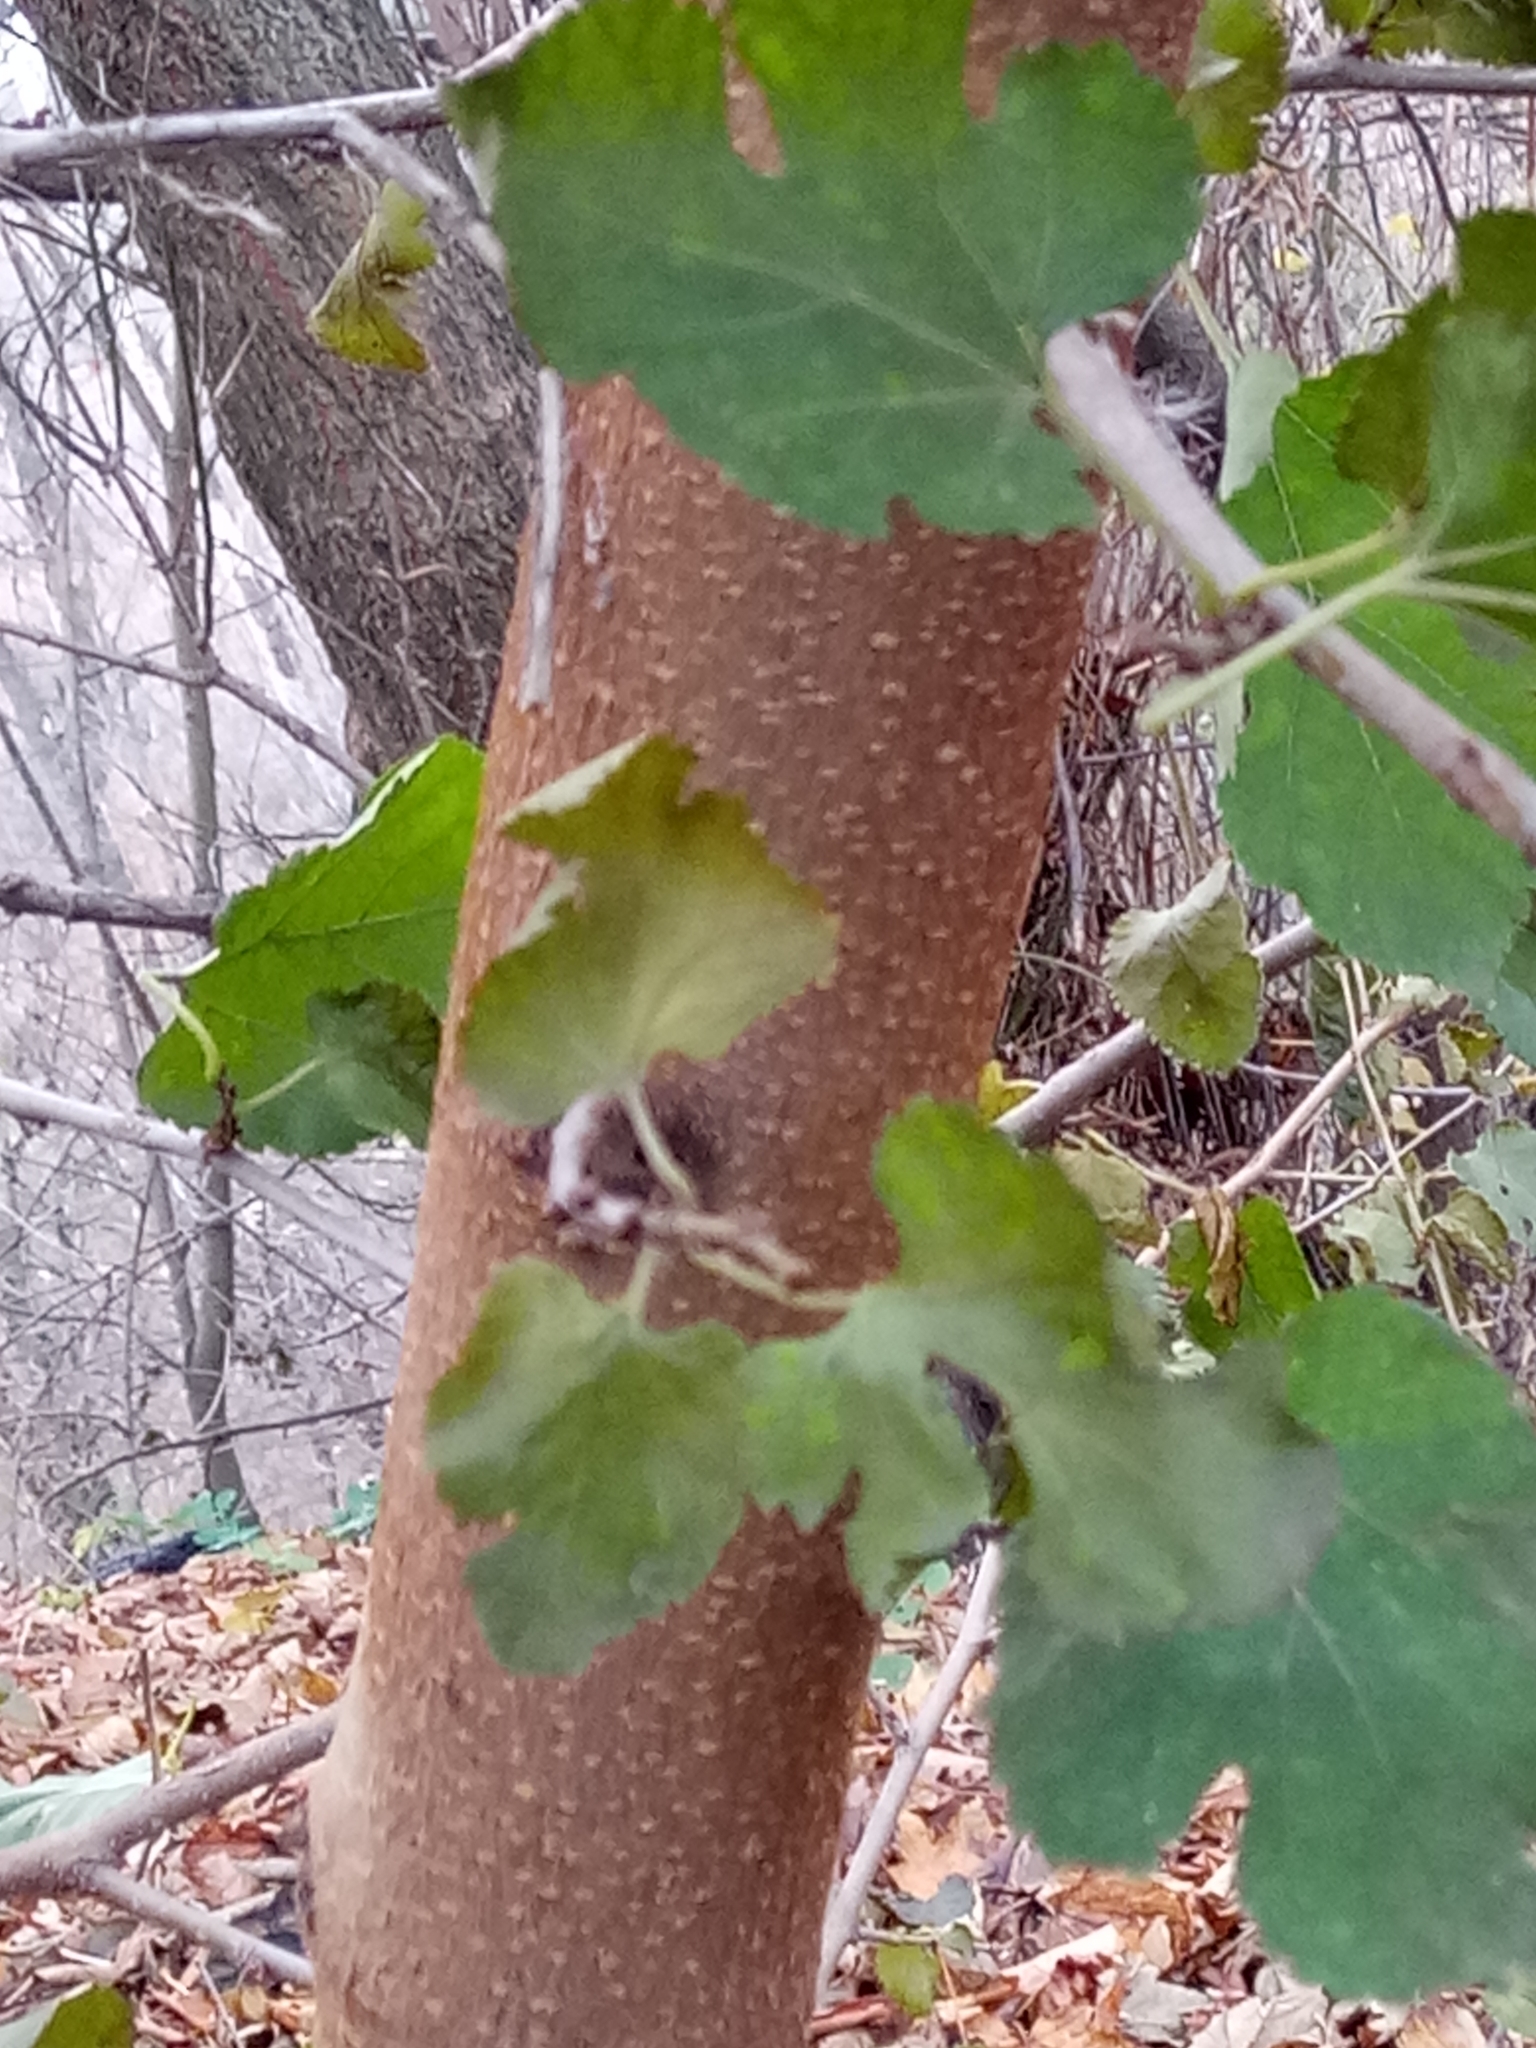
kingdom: Plantae
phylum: Tracheophyta
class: Magnoliopsida
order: Rosales
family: Moraceae
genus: Morus
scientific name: Morus alba
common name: White mulberry
